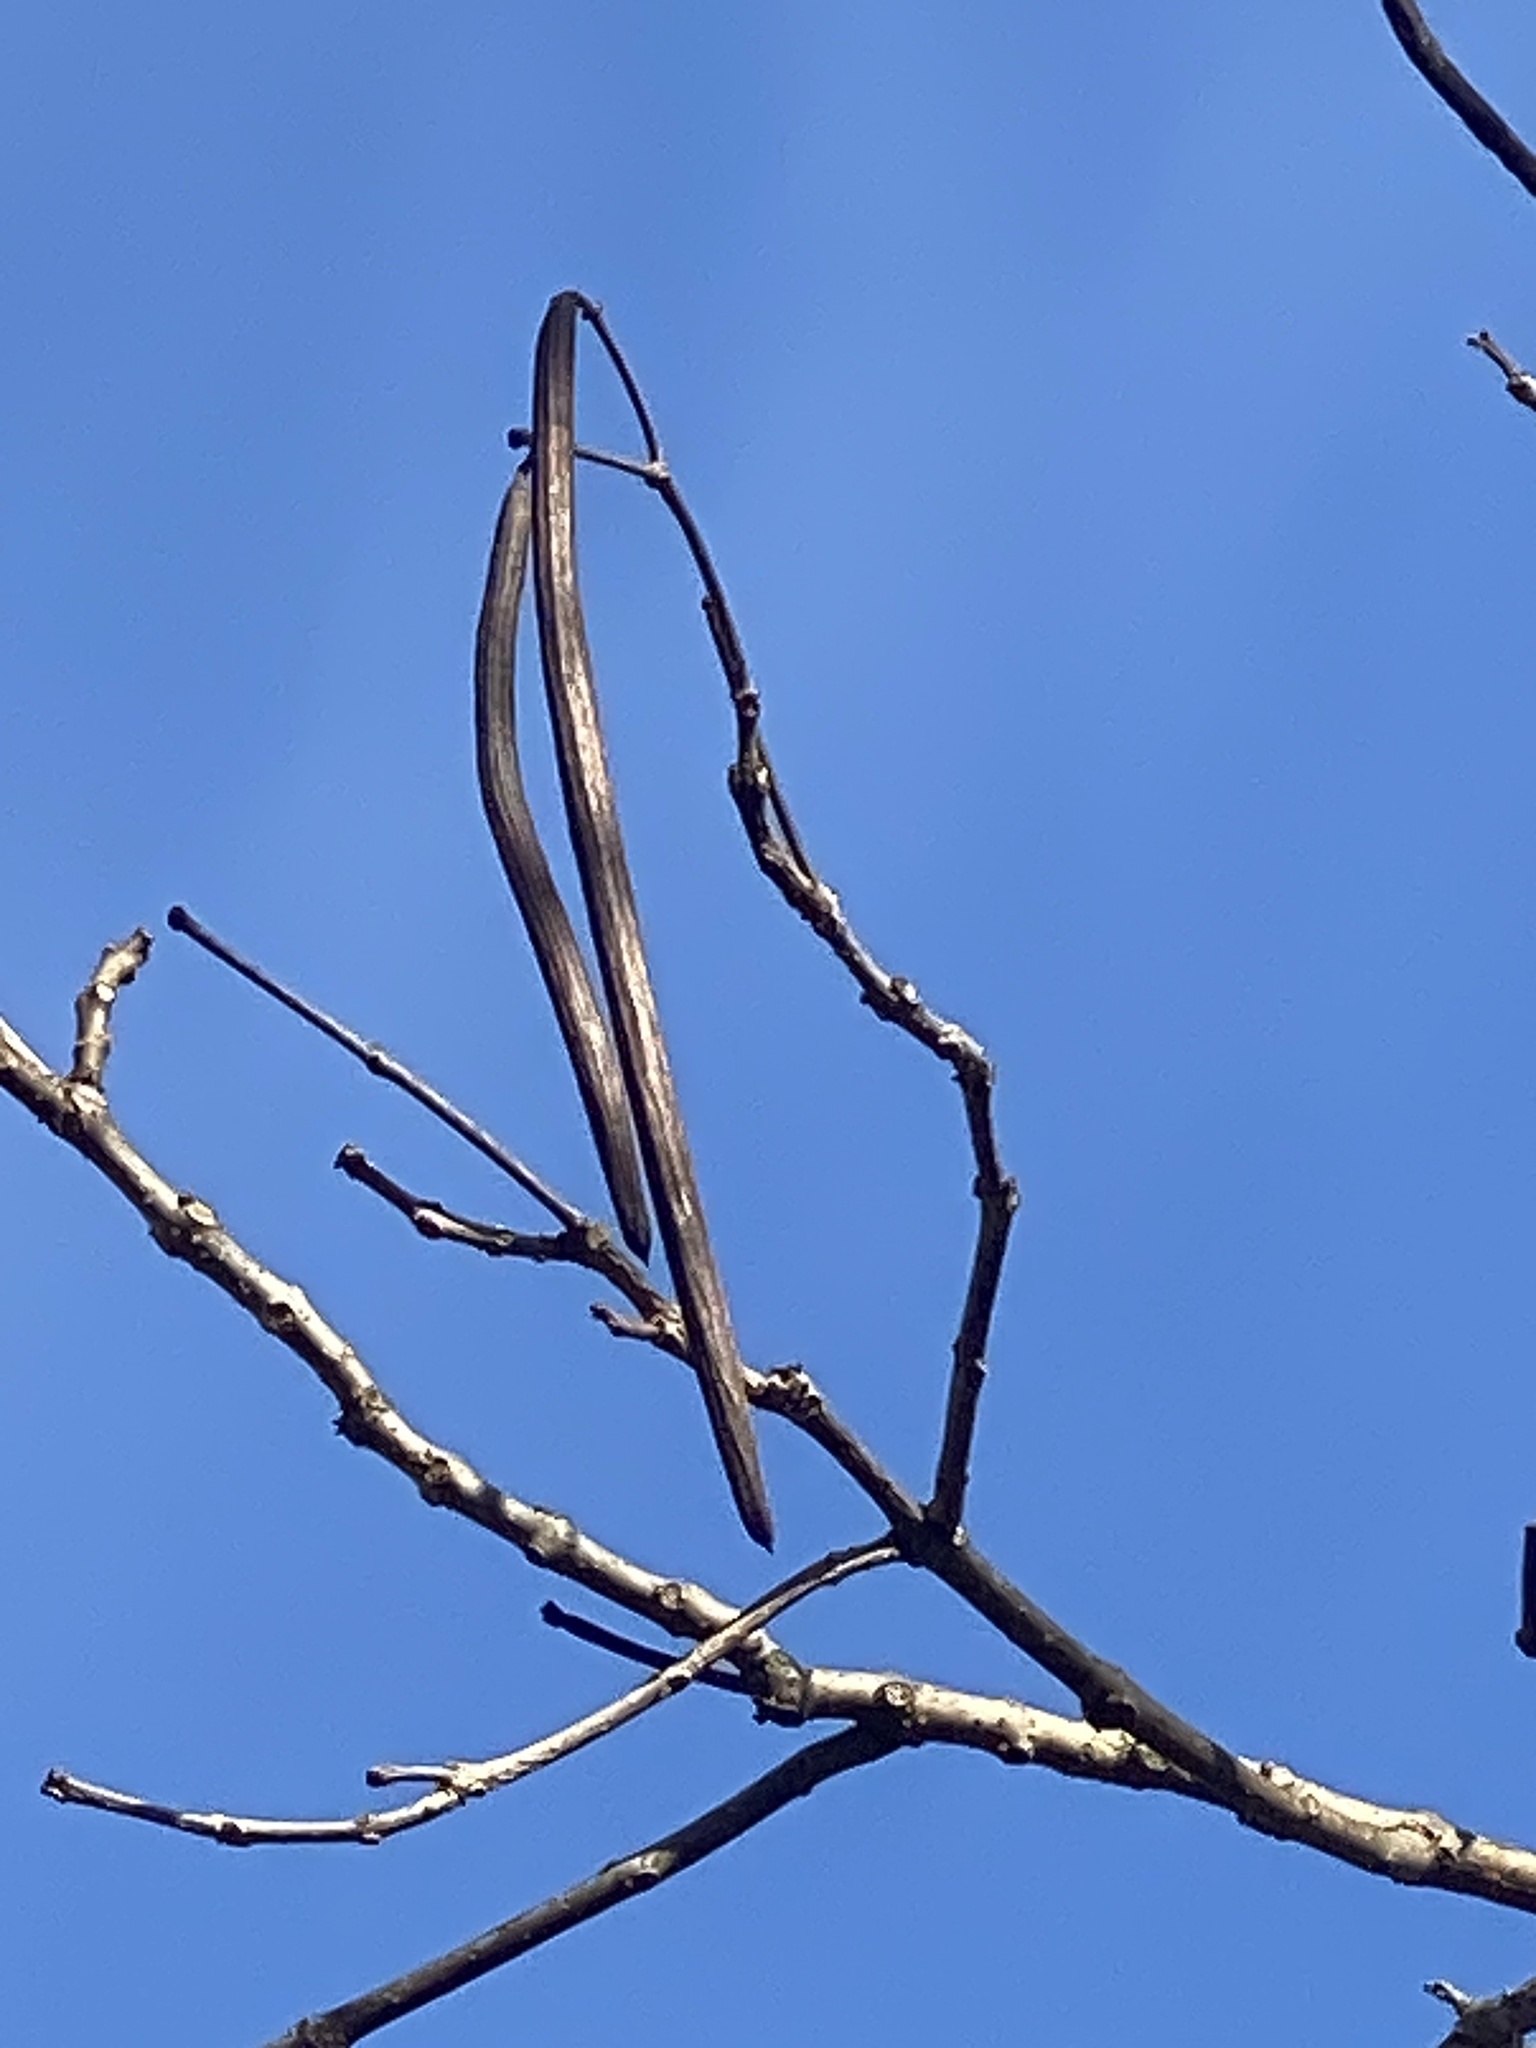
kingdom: Plantae
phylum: Tracheophyta
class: Magnoliopsida
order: Lamiales
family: Bignoniaceae
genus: Catalpa
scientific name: Catalpa
